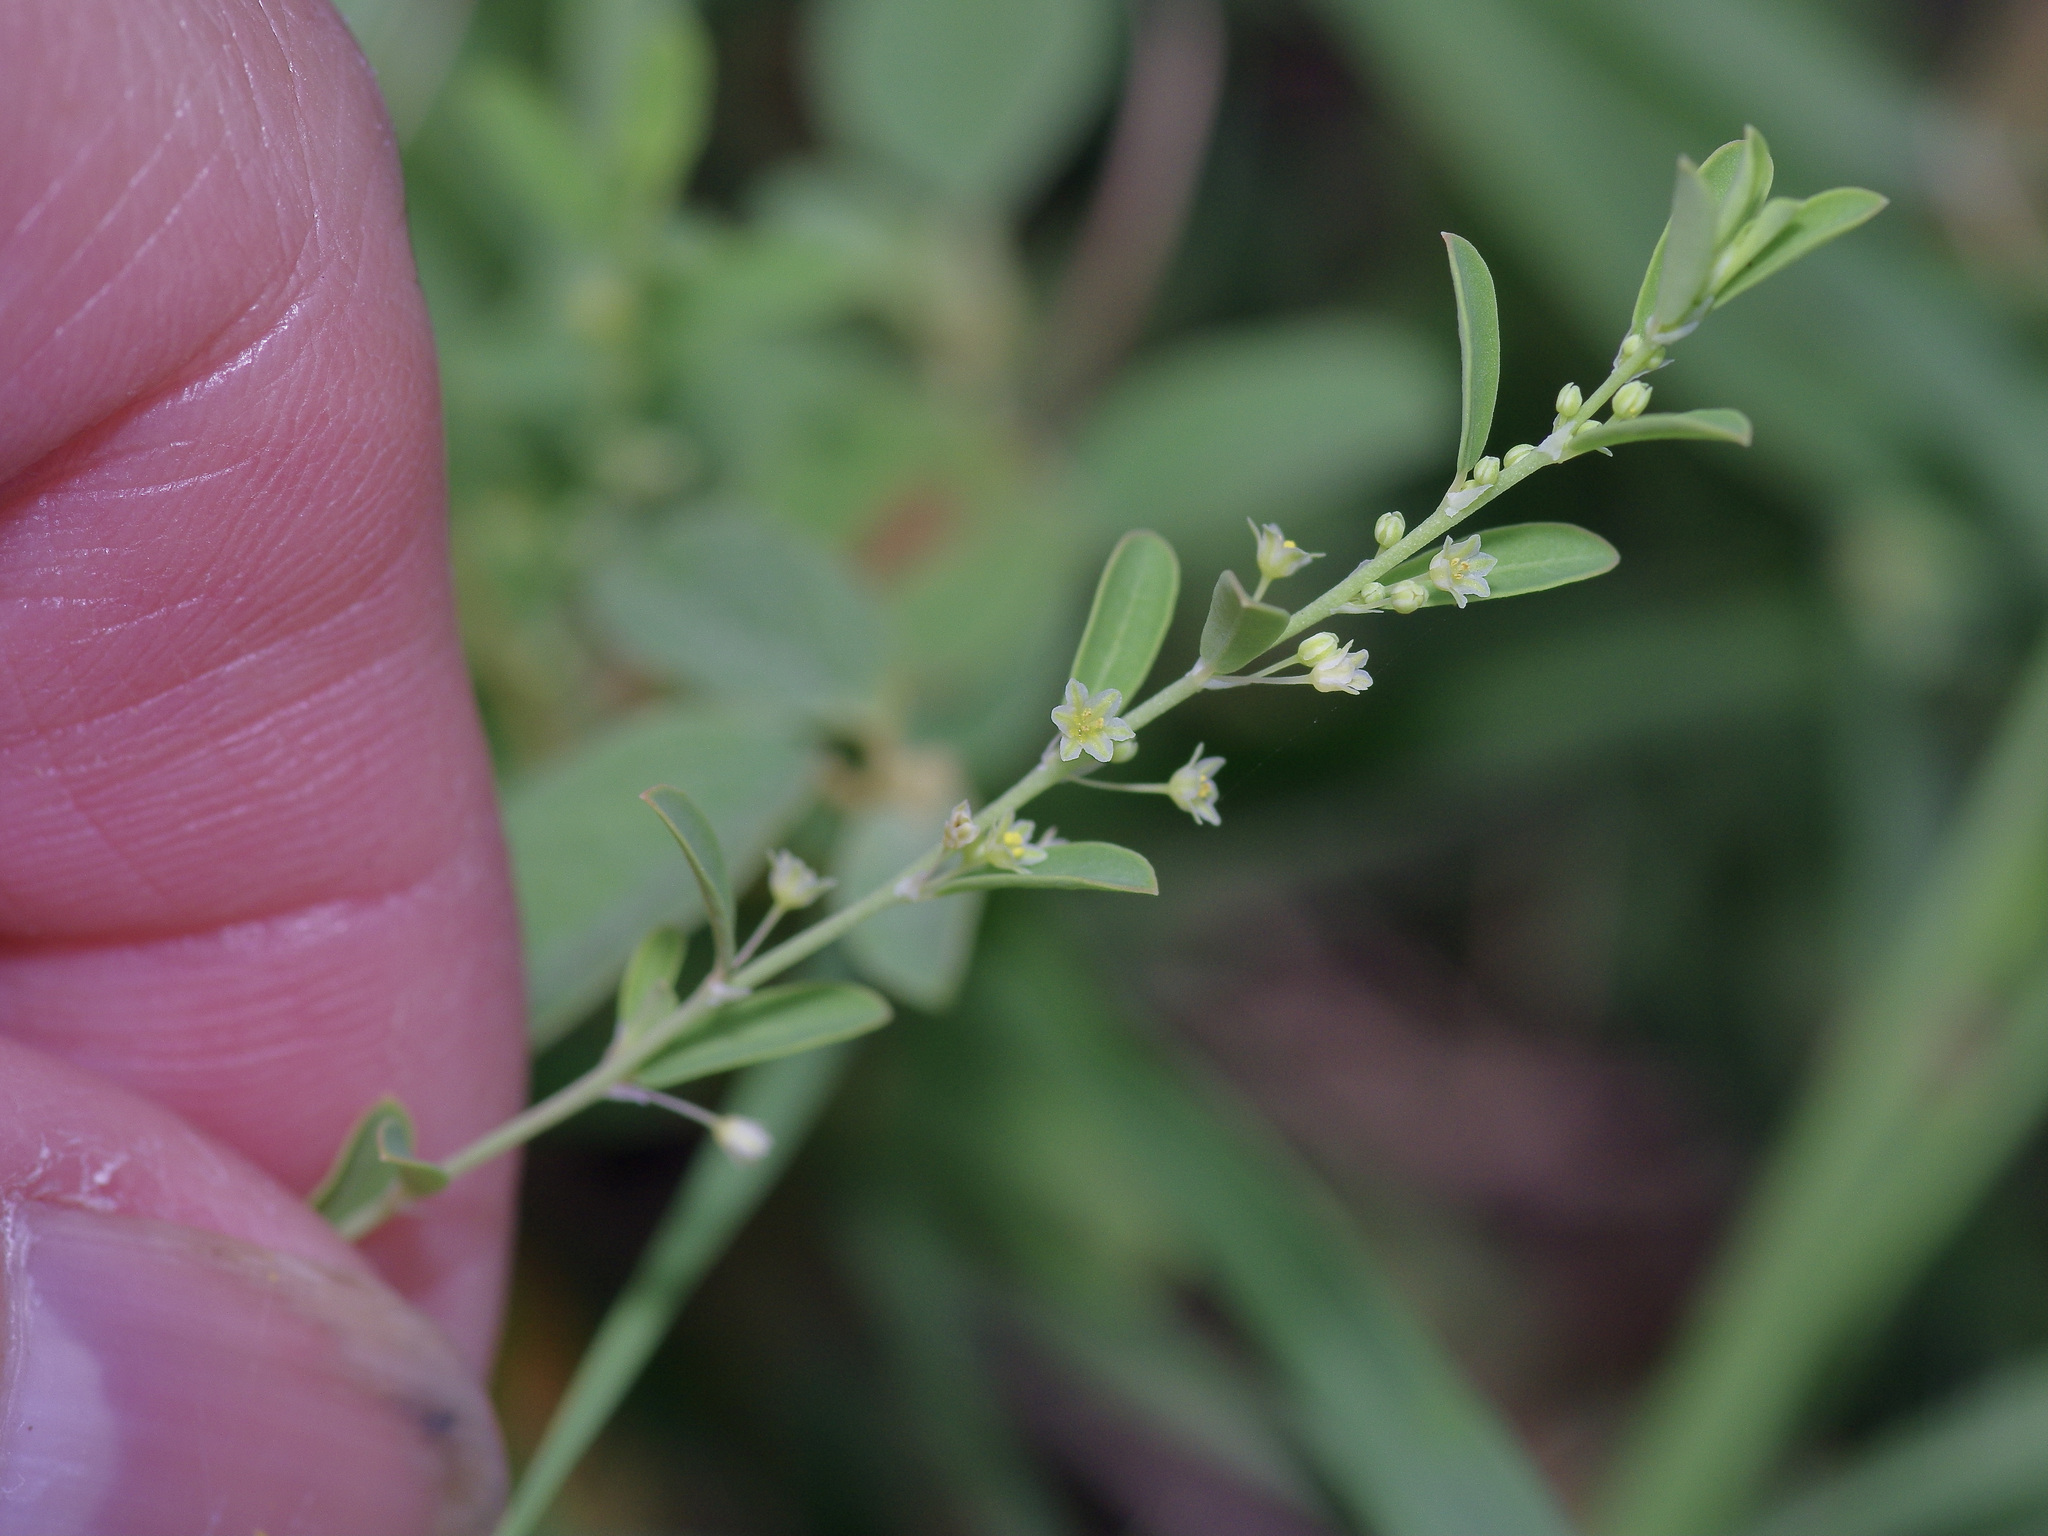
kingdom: Plantae
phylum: Tracheophyta
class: Magnoliopsida
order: Malpighiales
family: Phyllanthaceae
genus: Phyllanthus
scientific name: Phyllanthus polygonoides
